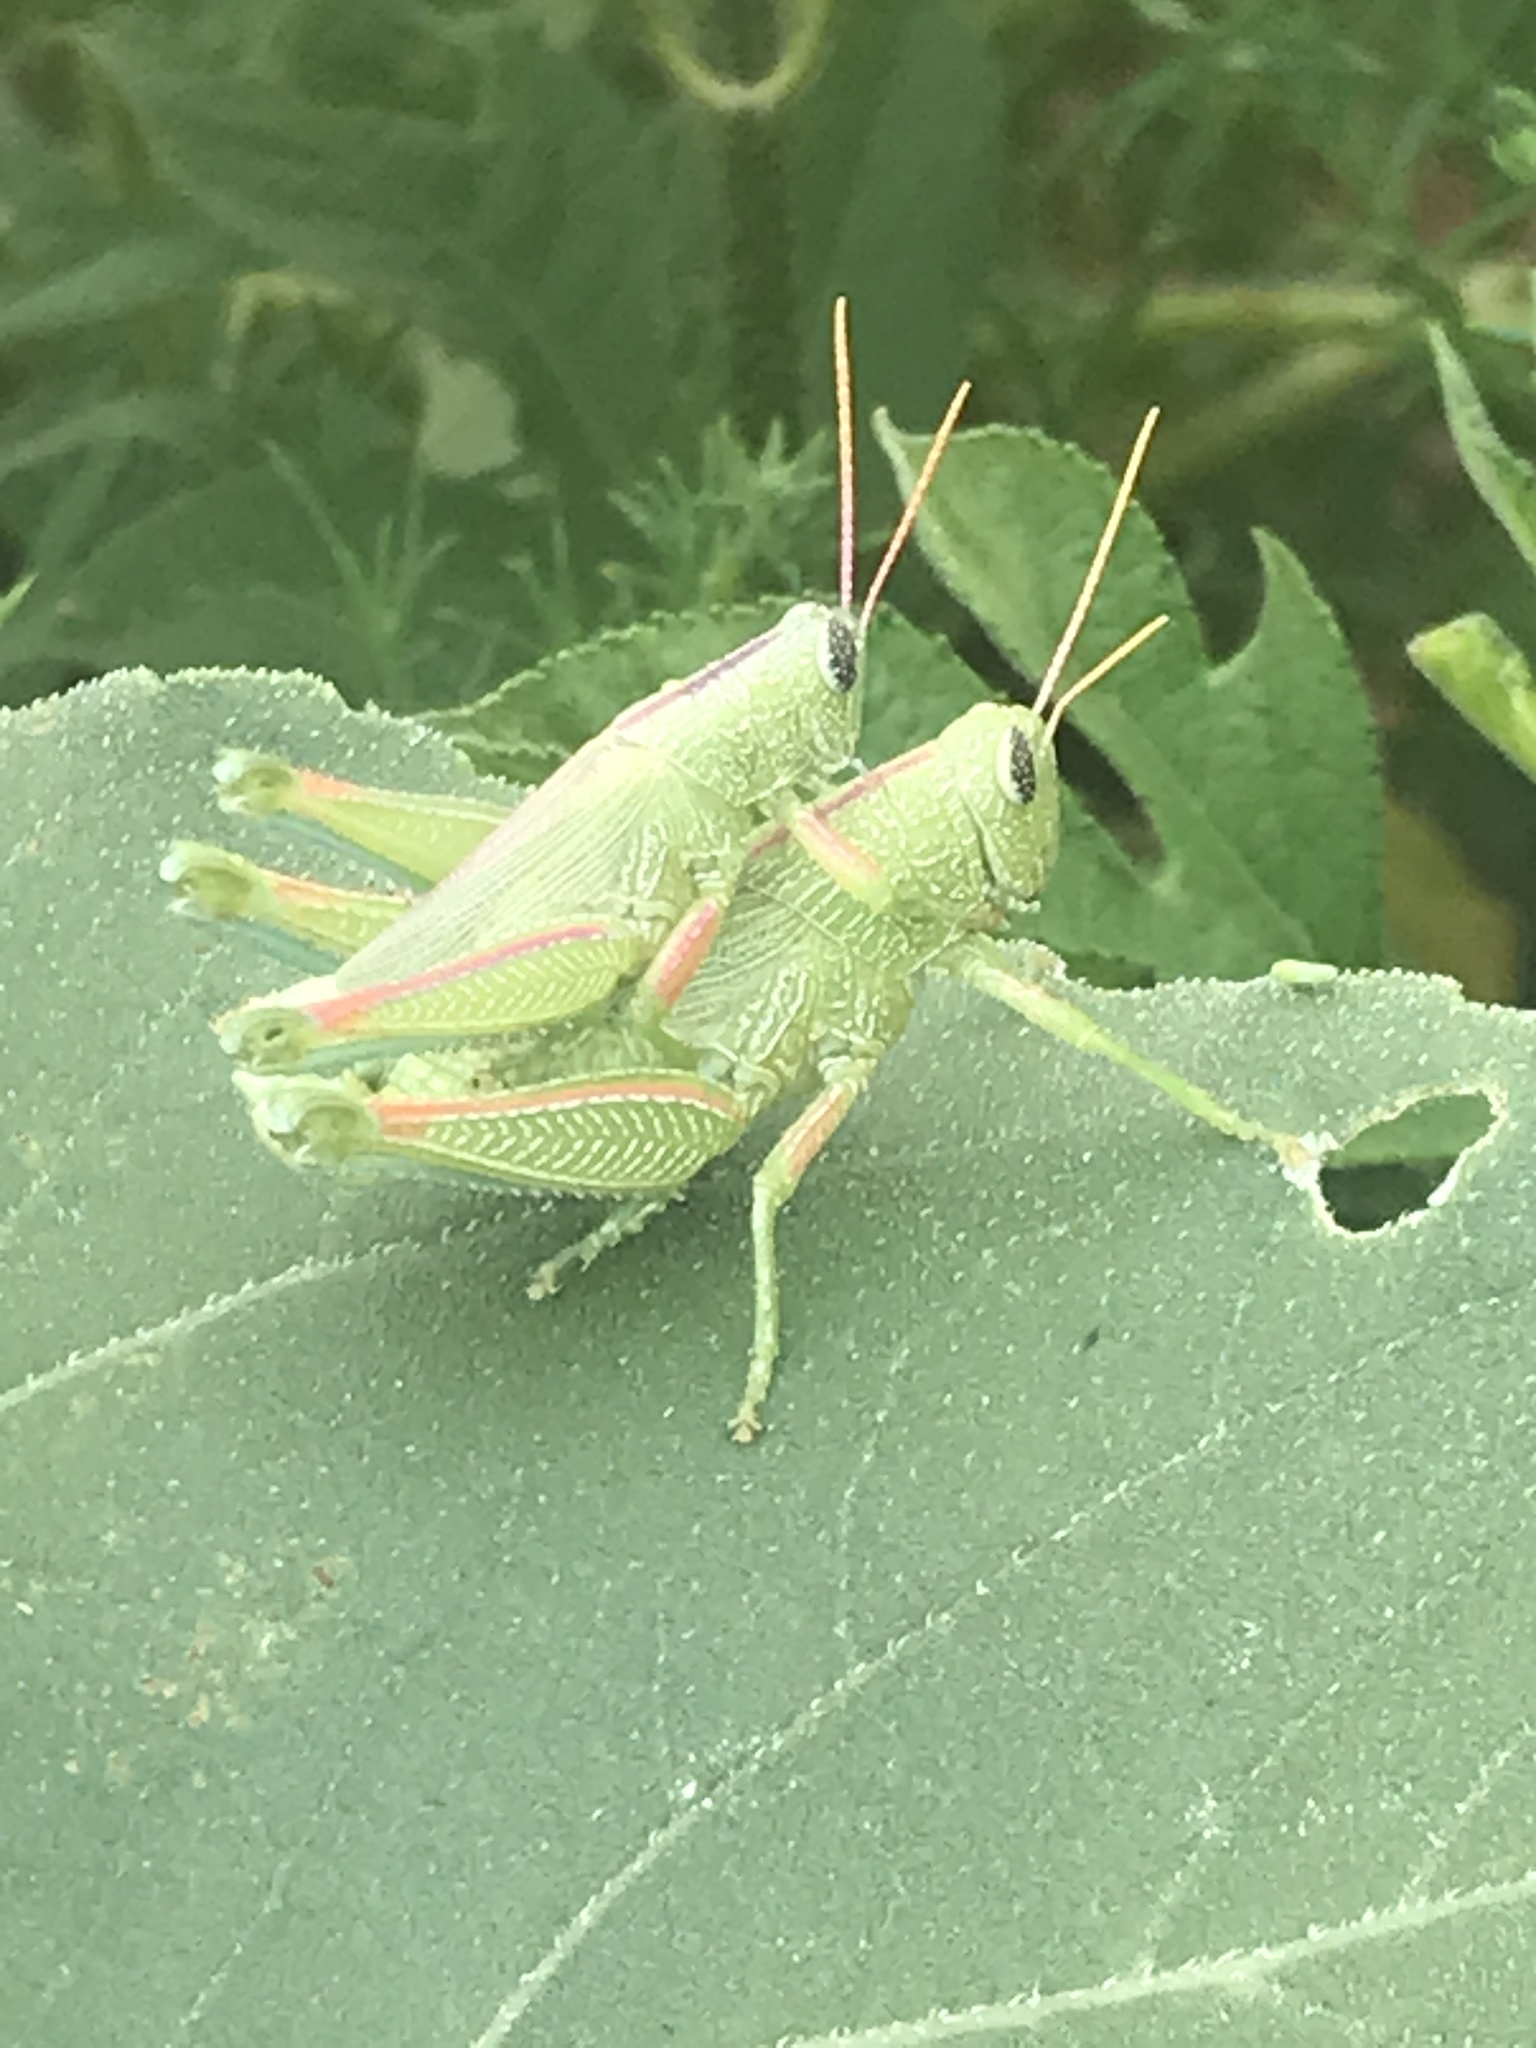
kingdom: Animalia
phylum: Arthropoda
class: Insecta
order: Orthoptera
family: Acrididae
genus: Hesperotettix
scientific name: Hesperotettix speciosus
